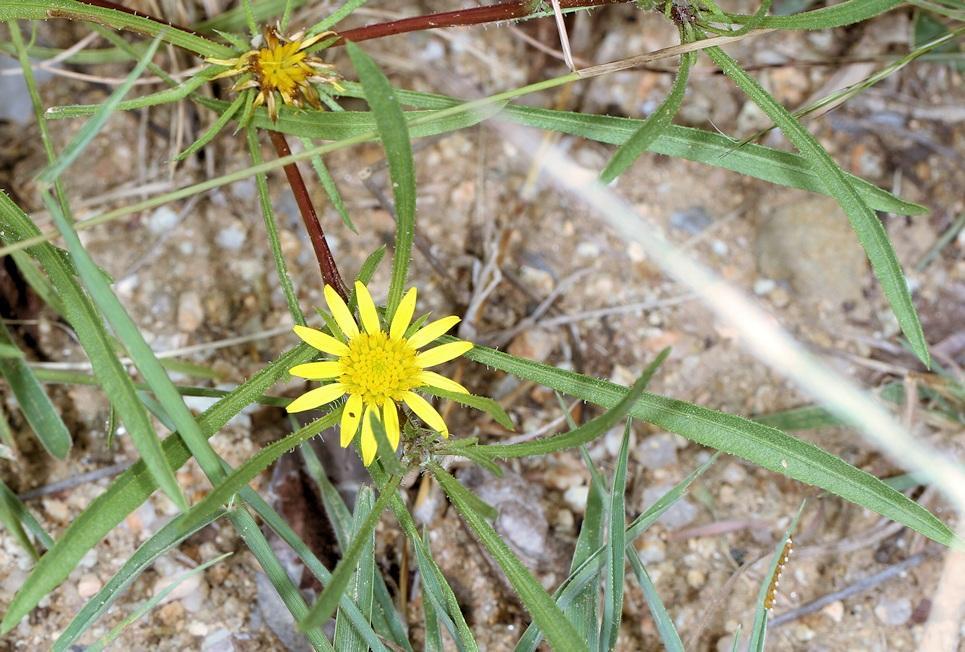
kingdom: Plantae
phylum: Tracheophyta
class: Magnoliopsida
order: Asterales
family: Asteraceae
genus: Geigeria
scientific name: Geigeria ornativa
